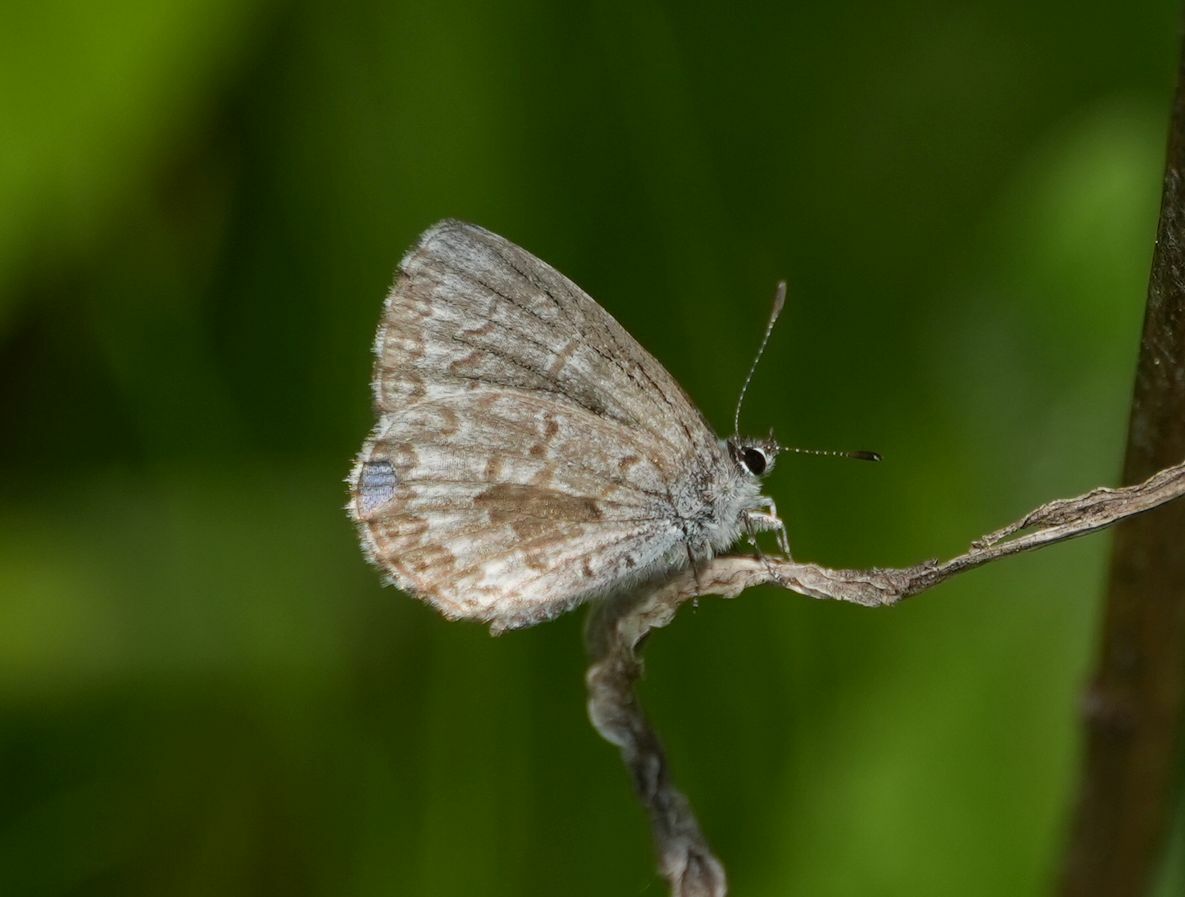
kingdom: Animalia
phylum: Arthropoda
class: Insecta
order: Lepidoptera
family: Lycaenidae
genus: Celastrina
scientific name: Celastrina lucia
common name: Lucia azure
